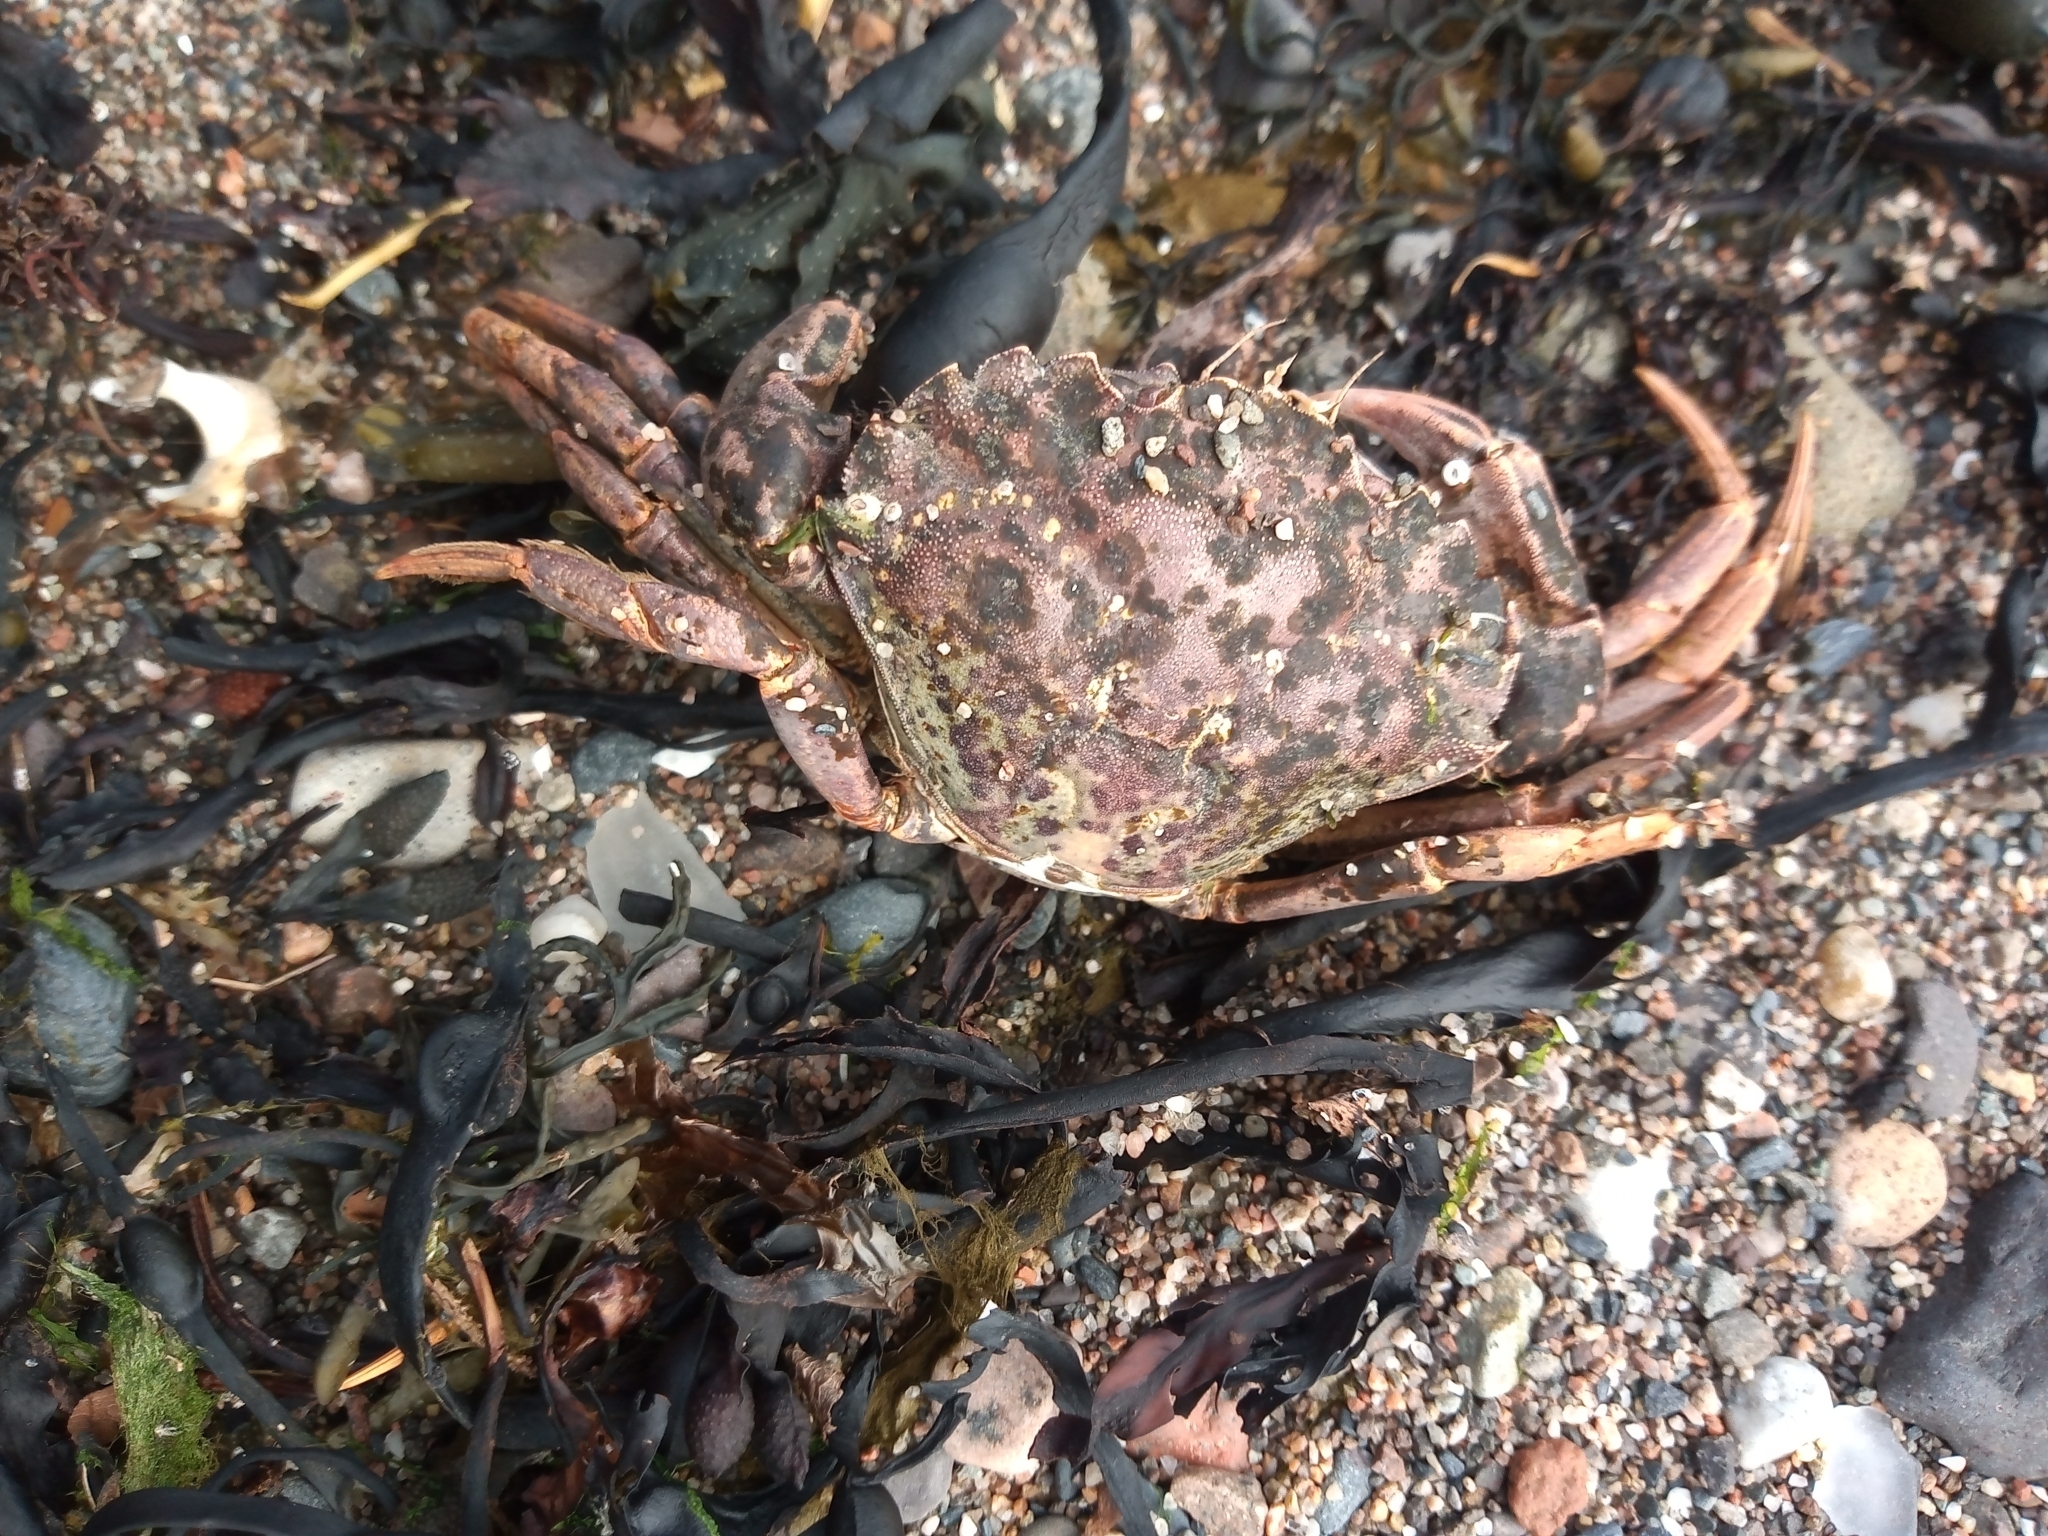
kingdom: Animalia
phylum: Arthropoda
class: Malacostraca
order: Decapoda
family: Carcinidae
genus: Carcinus
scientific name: Carcinus maenas
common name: European green crab
